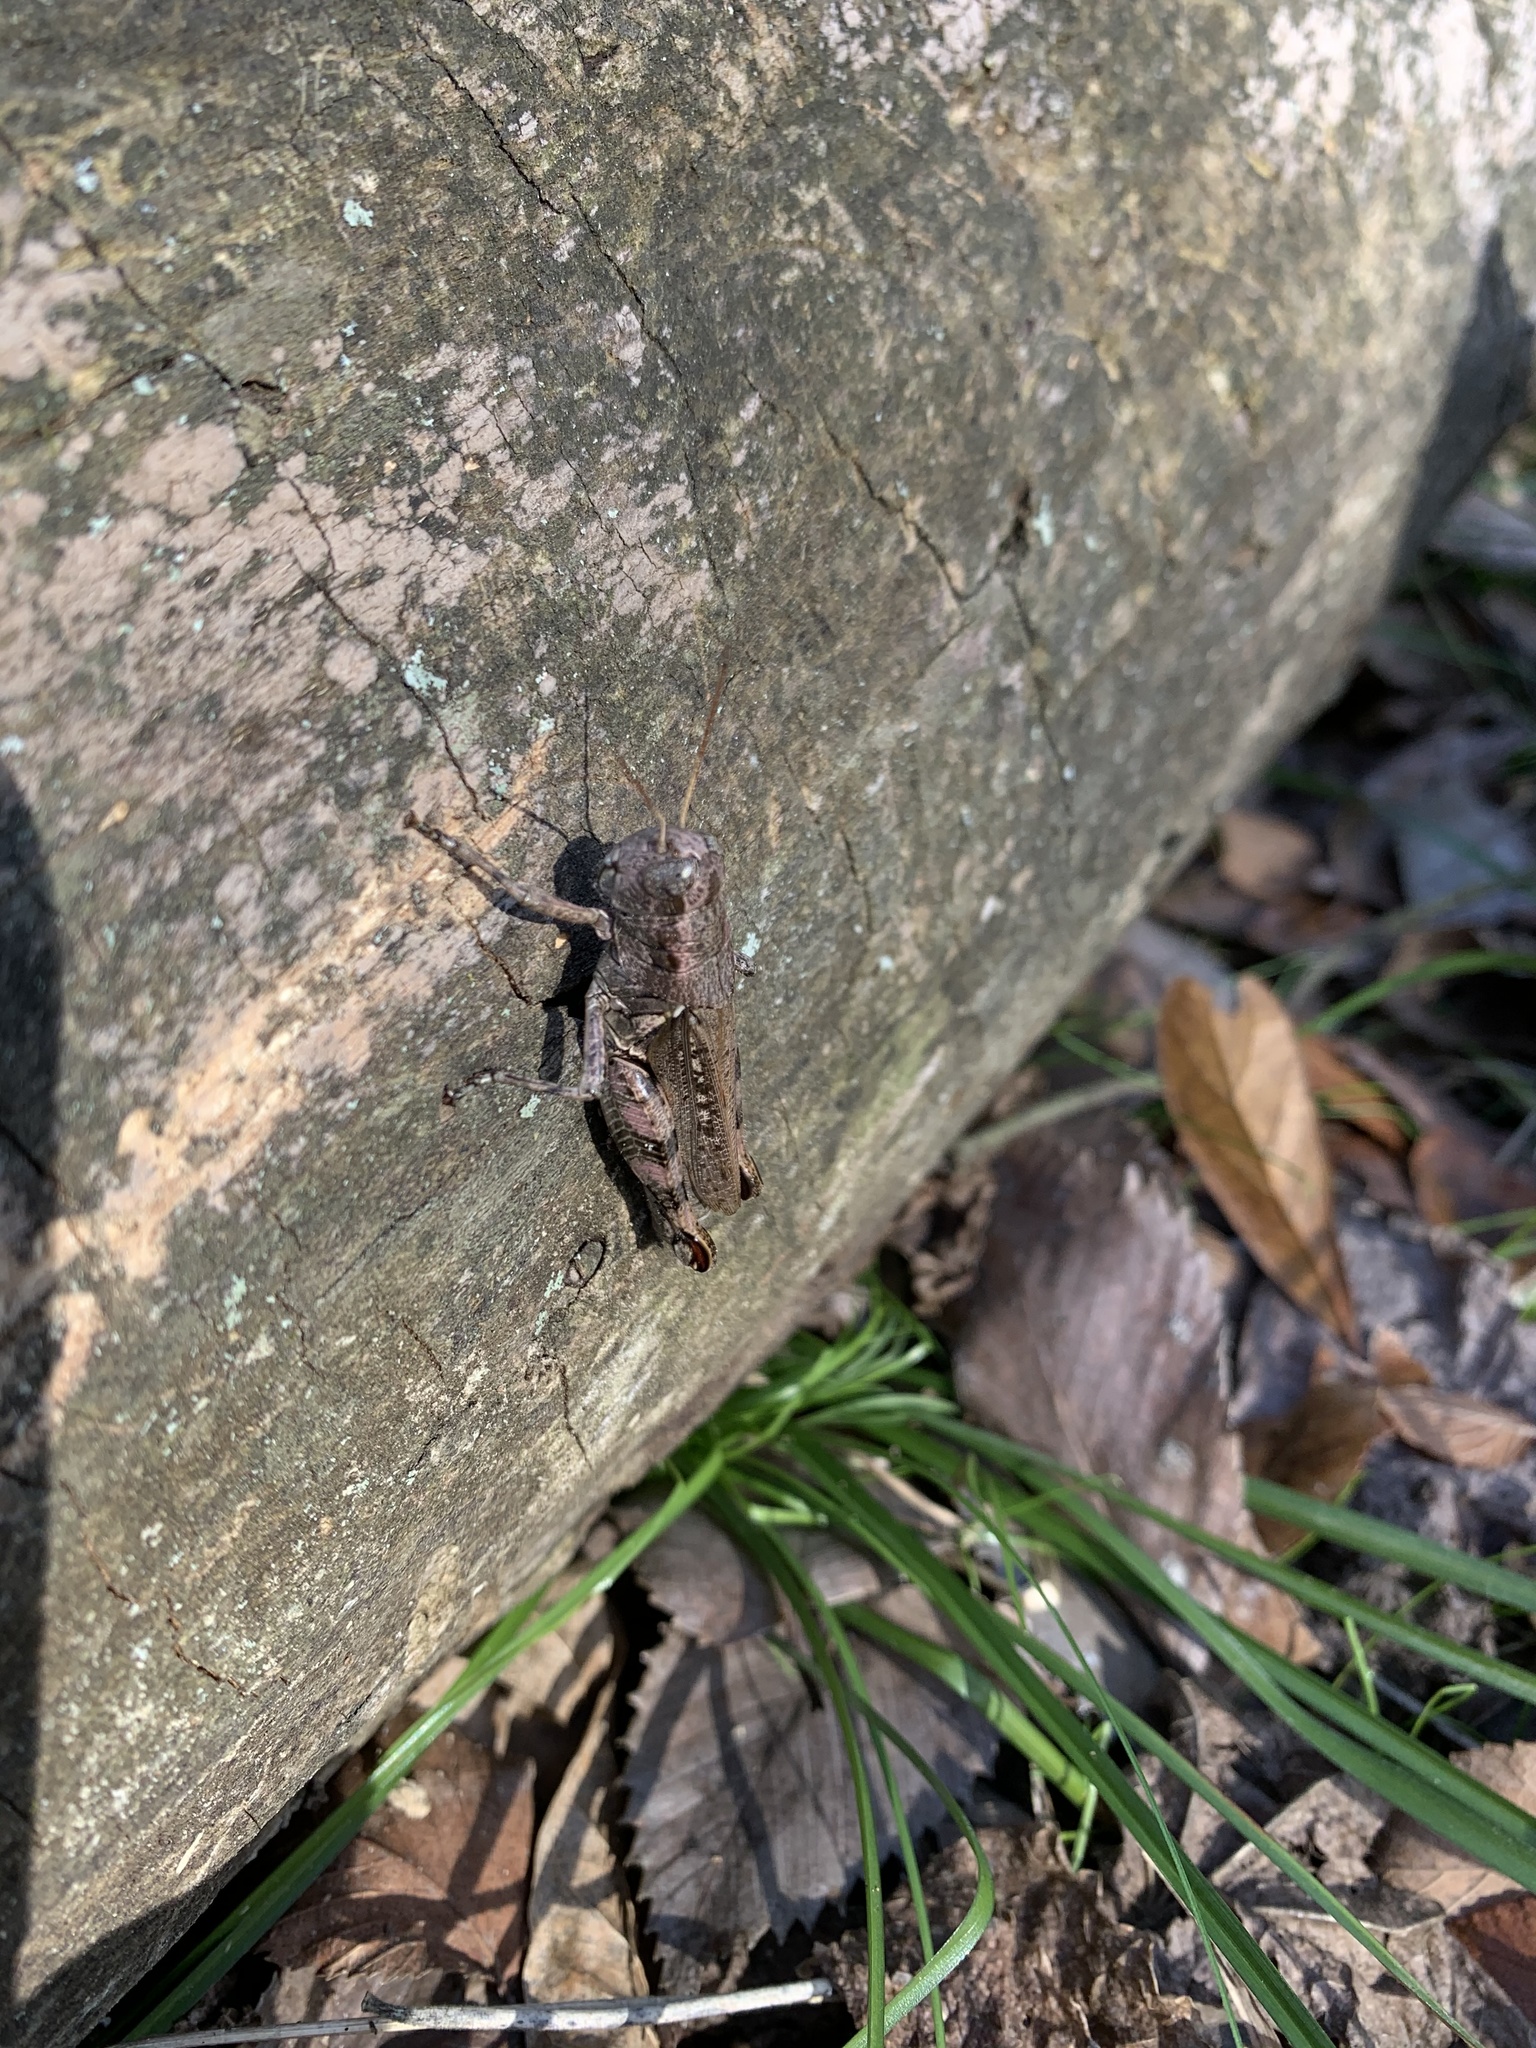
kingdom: Animalia
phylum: Arthropoda
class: Insecta
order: Orthoptera
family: Acrididae
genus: Melanoplus
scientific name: Melanoplus ponderosus
